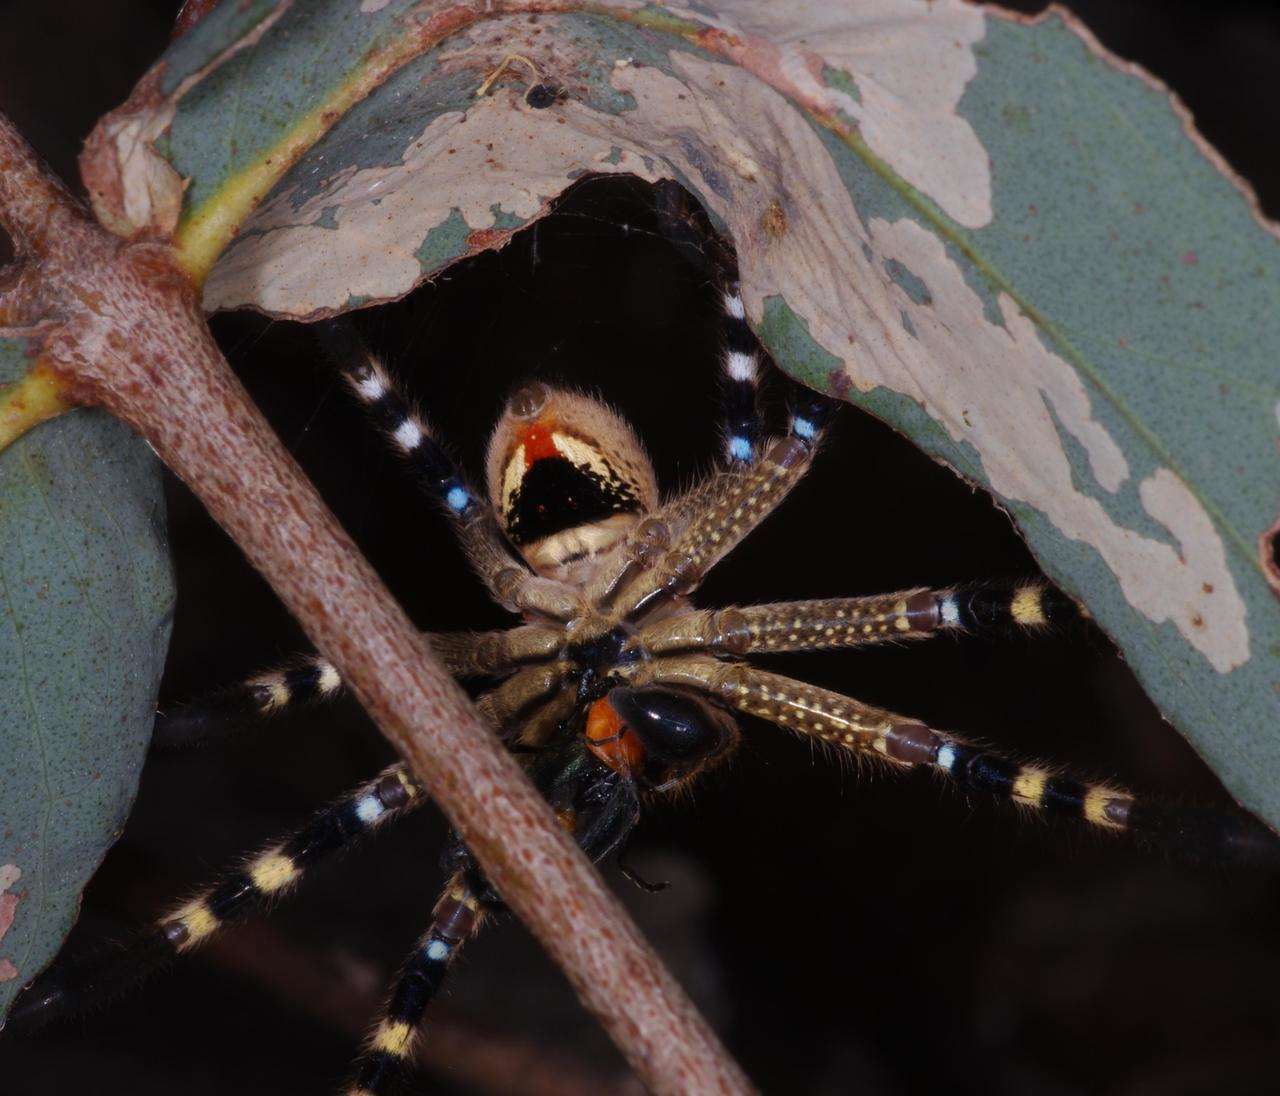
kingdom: Animalia
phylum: Arthropoda
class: Arachnida
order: Araneae
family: Sparassidae
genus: Neosparassus
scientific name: Neosparassus calligaster
